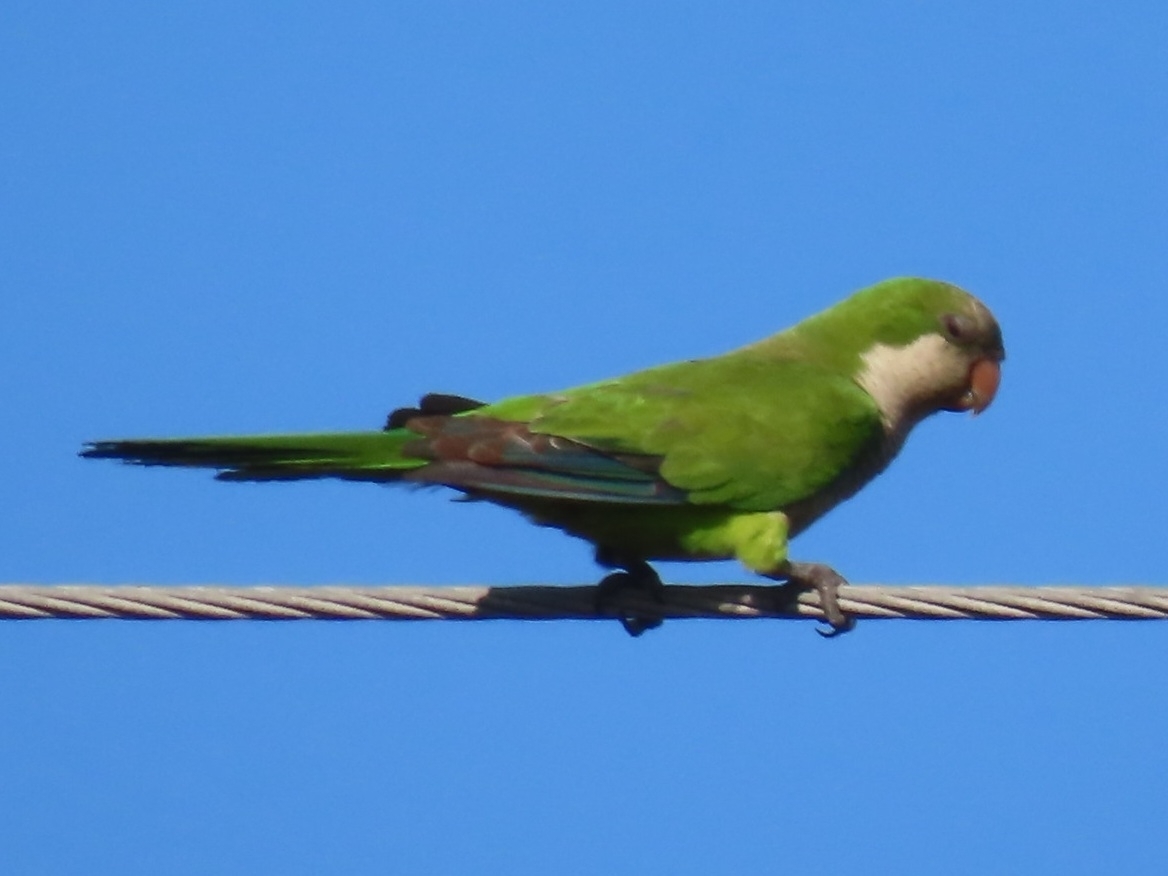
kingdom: Animalia
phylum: Chordata
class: Aves
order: Psittaciformes
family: Psittacidae
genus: Myiopsitta
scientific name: Myiopsitta monachus
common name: Monk parakeet
